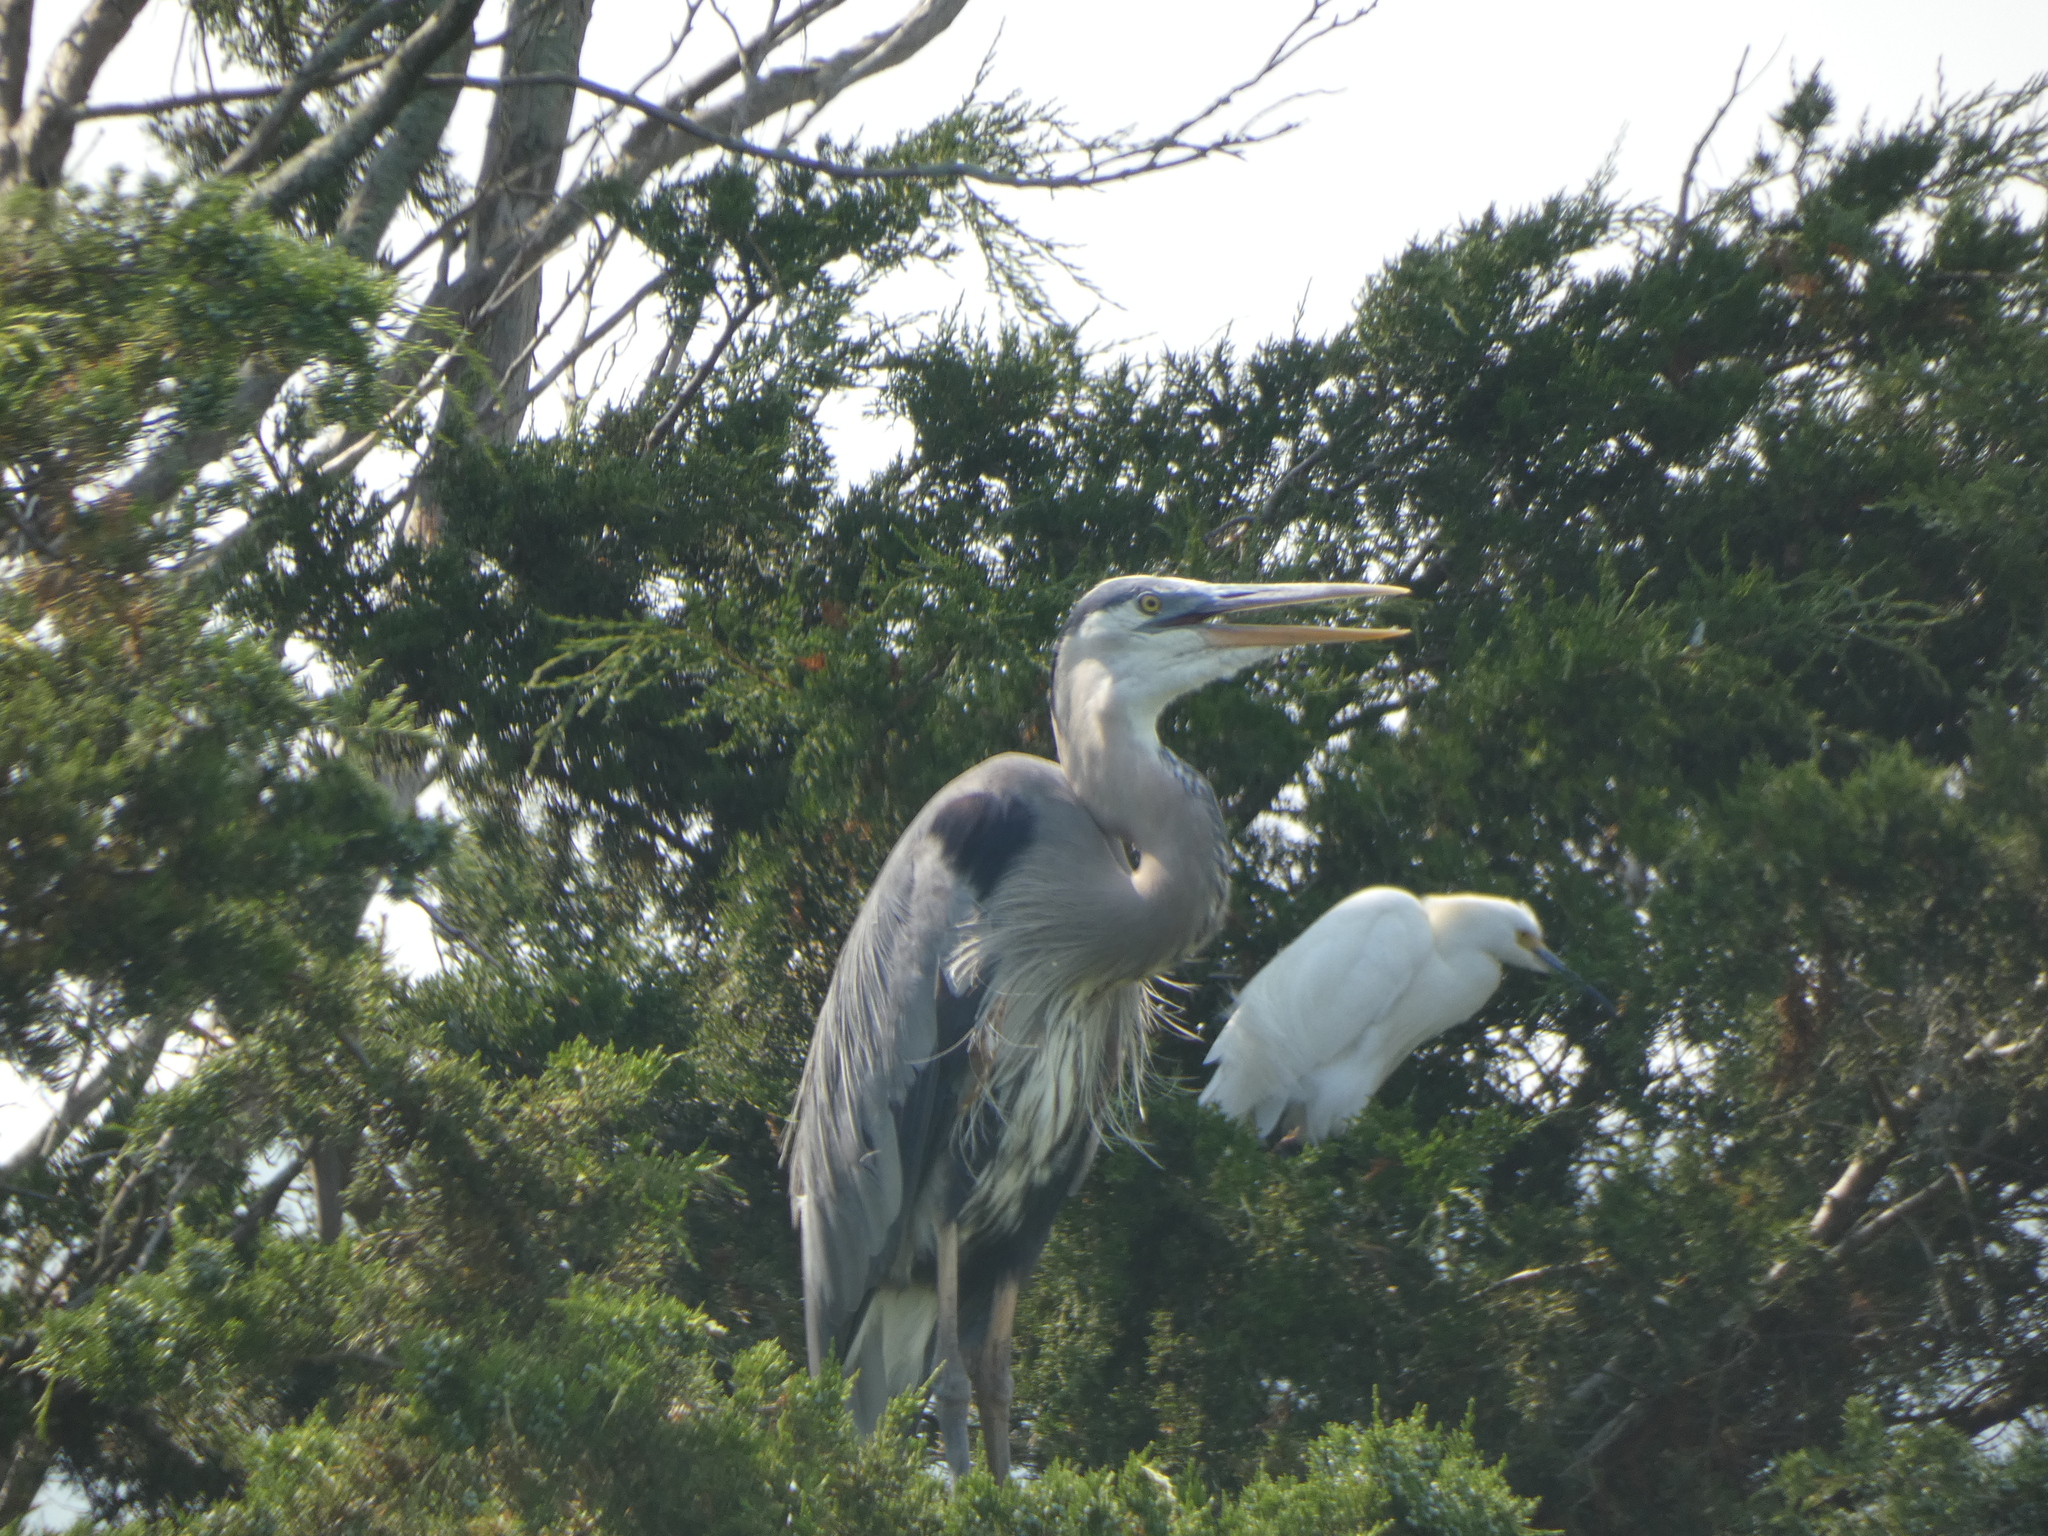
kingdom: Animalia
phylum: Chordata
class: Aves
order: Pelecaniformes
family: Ardeidae
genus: Ardea
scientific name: Ardea herodias
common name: Great blue heron
